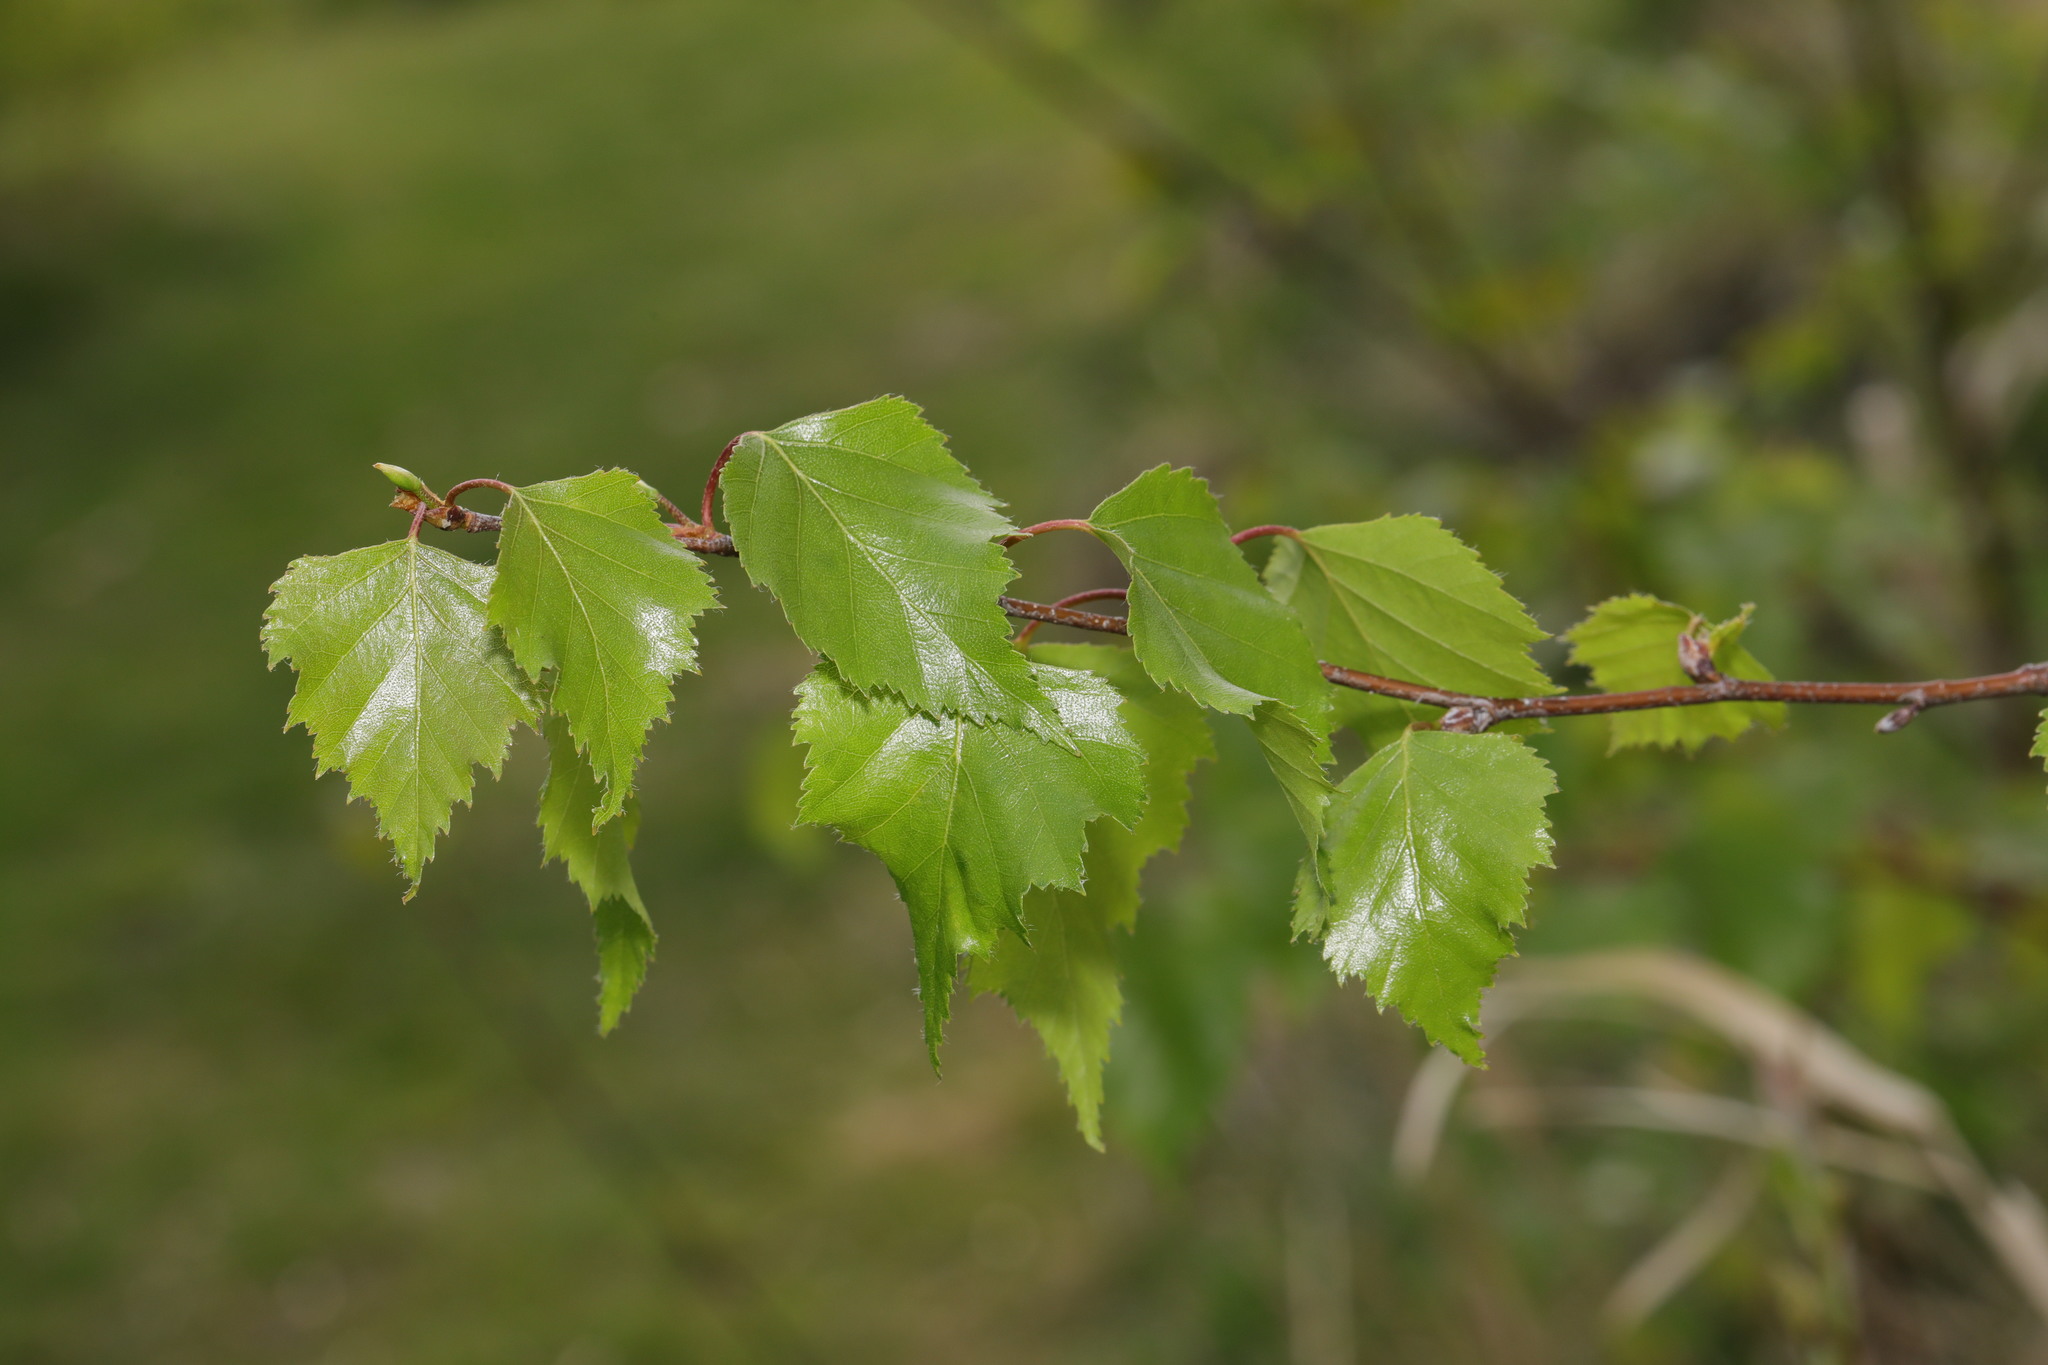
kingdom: Plantae
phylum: Tracheophyta
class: Magnoliopsida
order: Fagales
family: Betulaceae
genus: Betula
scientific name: Betula pendula
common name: Silver birch
